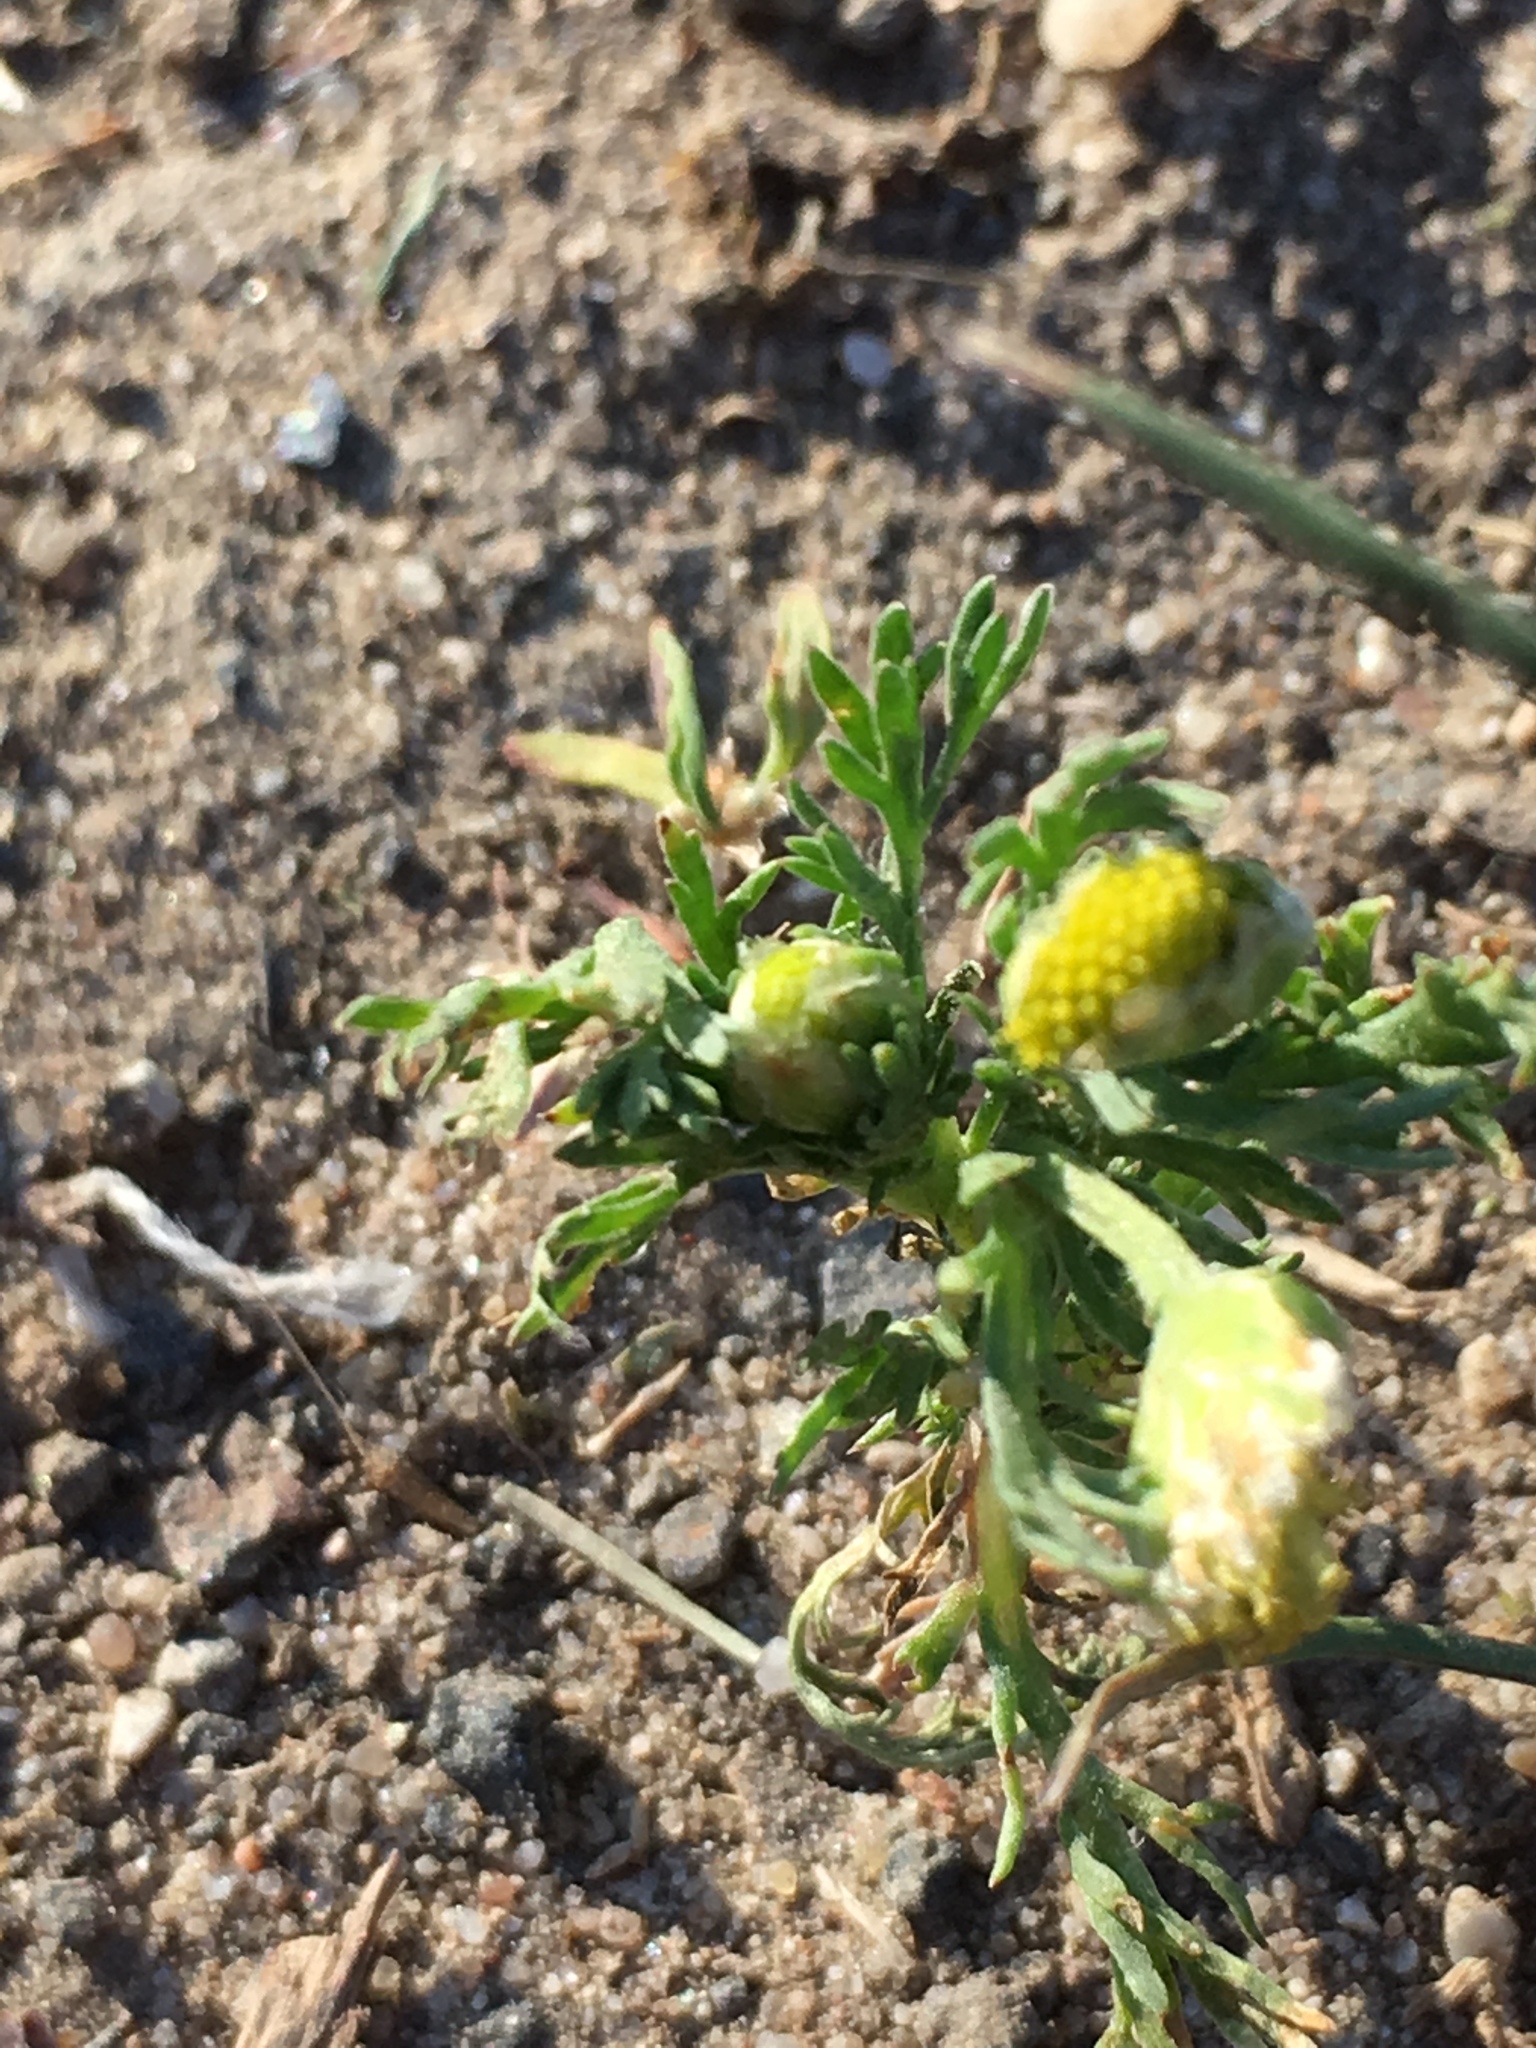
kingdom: Plantae
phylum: Tracheophyta
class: Magnoliopsida
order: Asterales
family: Asteraceae
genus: Matricaria
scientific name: Matricaria discoidea
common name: Disc mayweed
